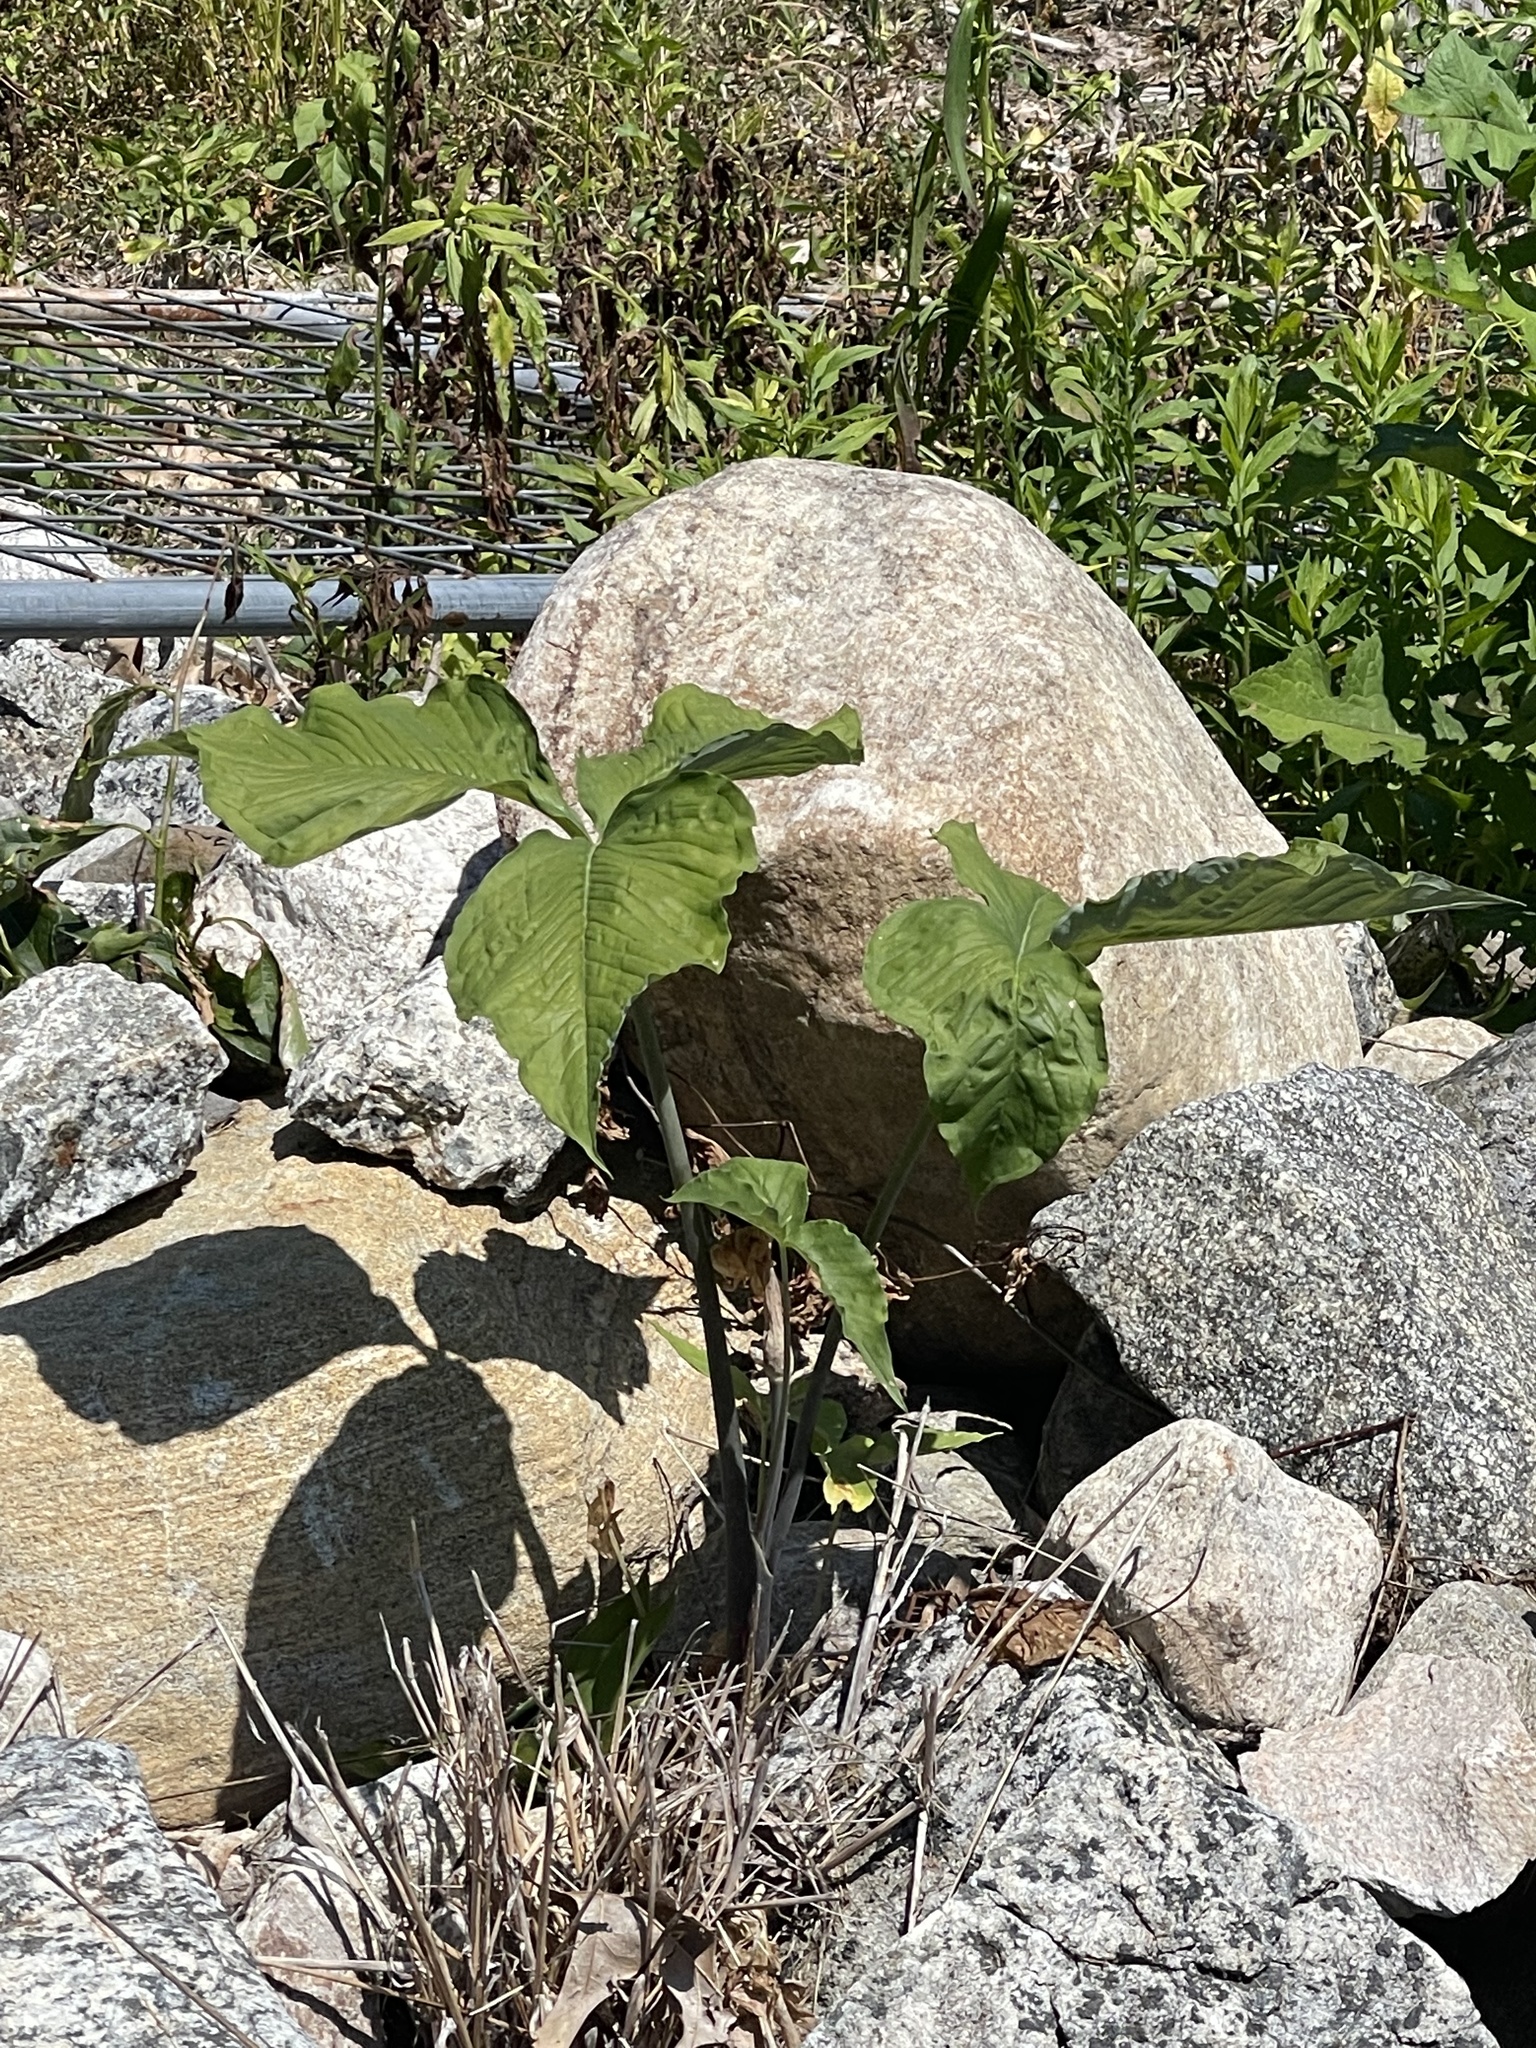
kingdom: Plantae
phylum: Tracheophyta
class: Liliopsida
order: Alismatales
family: Araceae
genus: Arisaema
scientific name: Arisaema triphyllum
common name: Jack-in-the-pulpit
